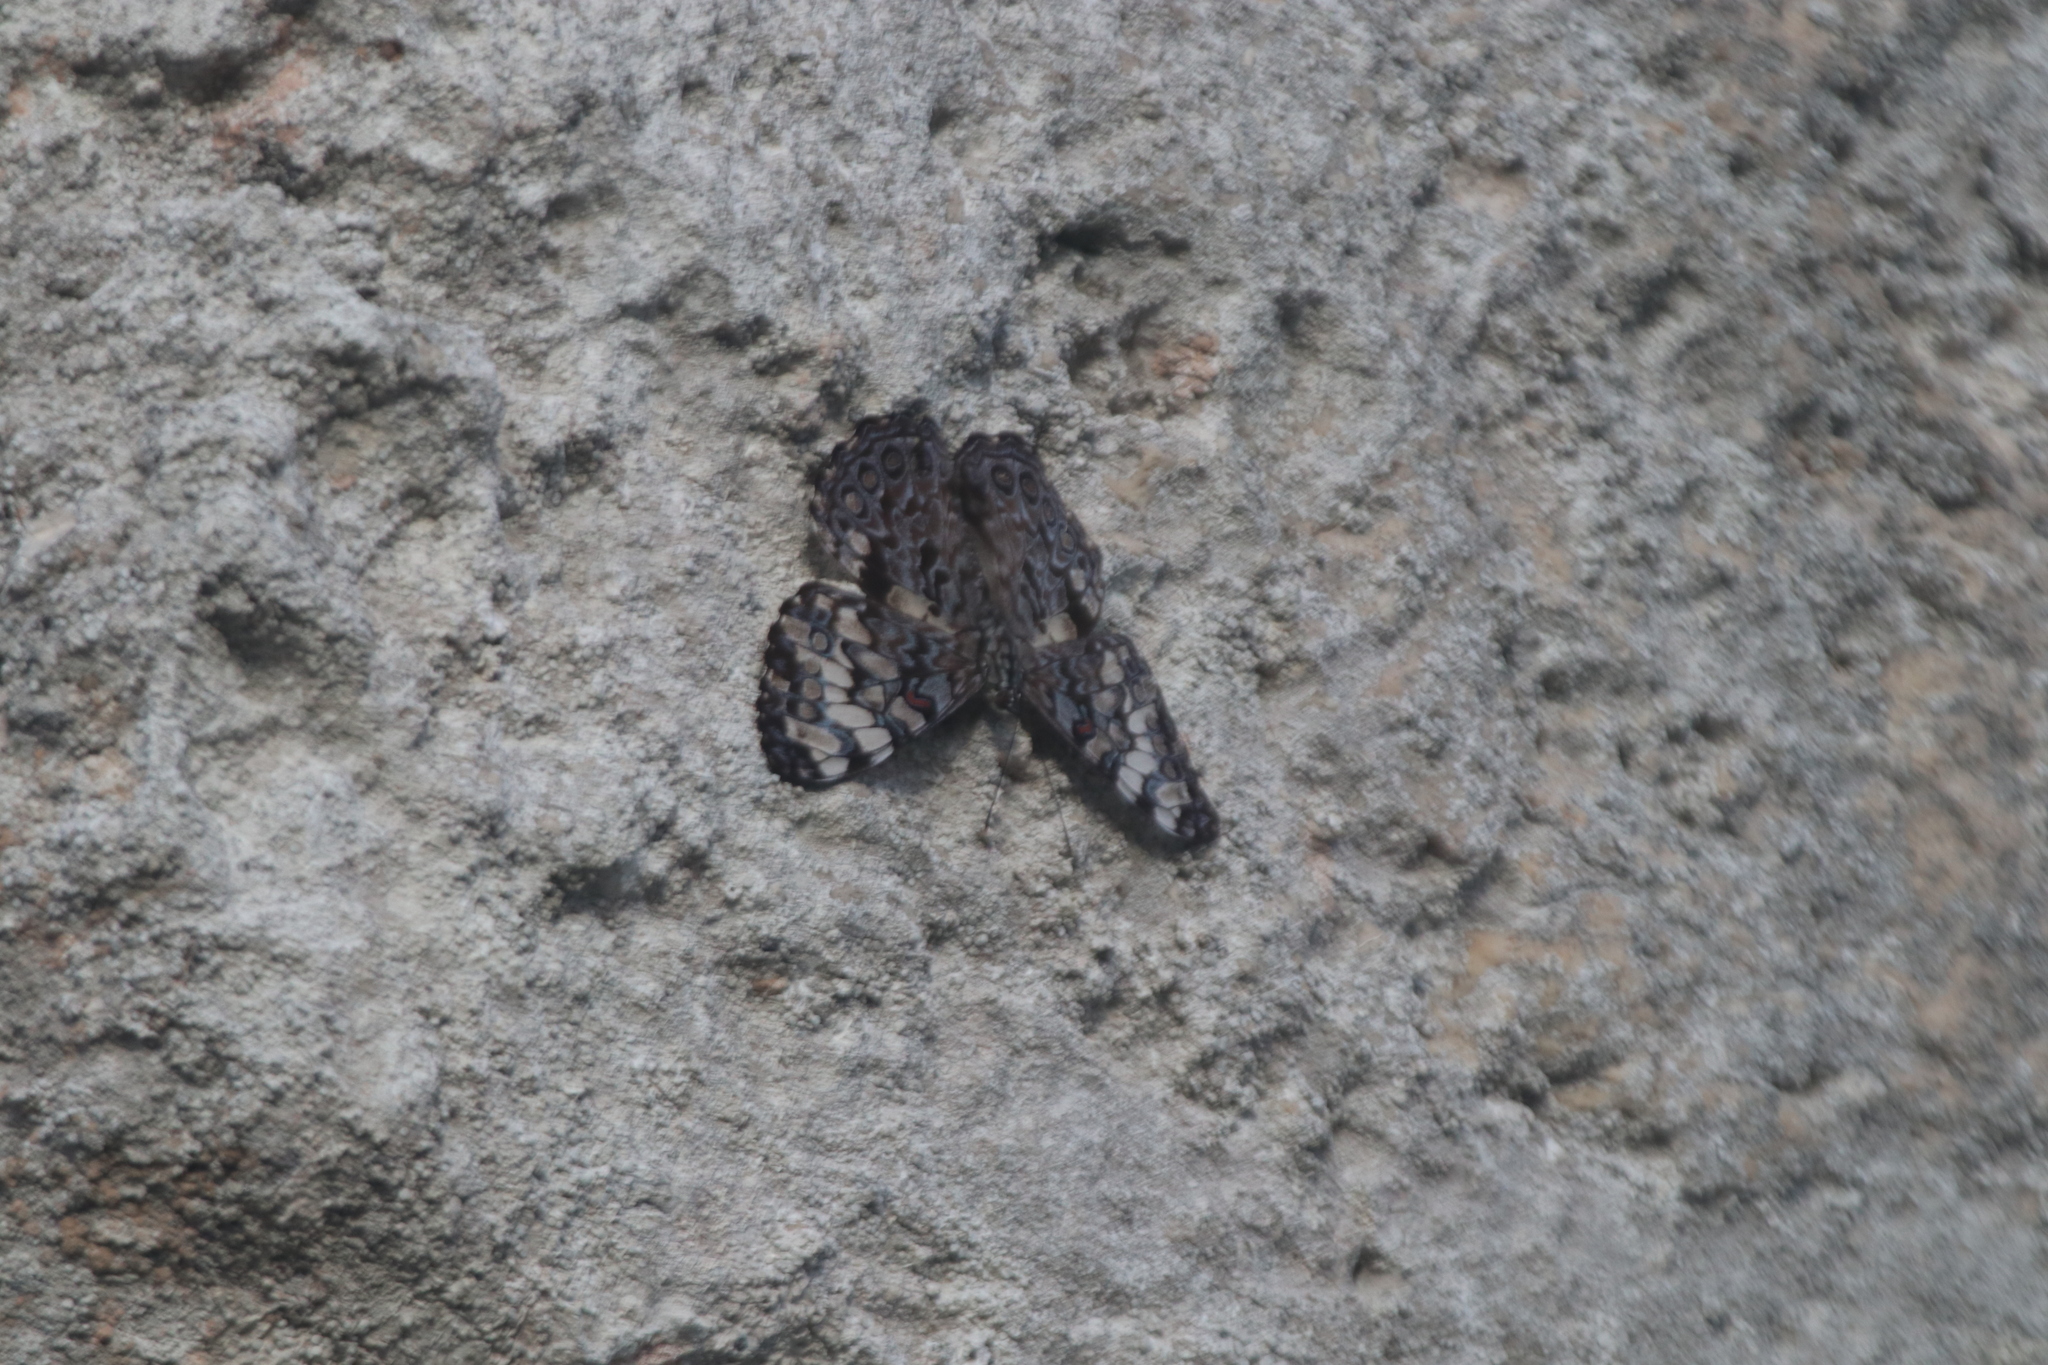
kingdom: Animalia
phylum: Arthropoda
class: Insecta
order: Lepidoptera
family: Nymphalidae
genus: Hamadryas
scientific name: Hamadryas guatemalena
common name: Guatemalan cracker
